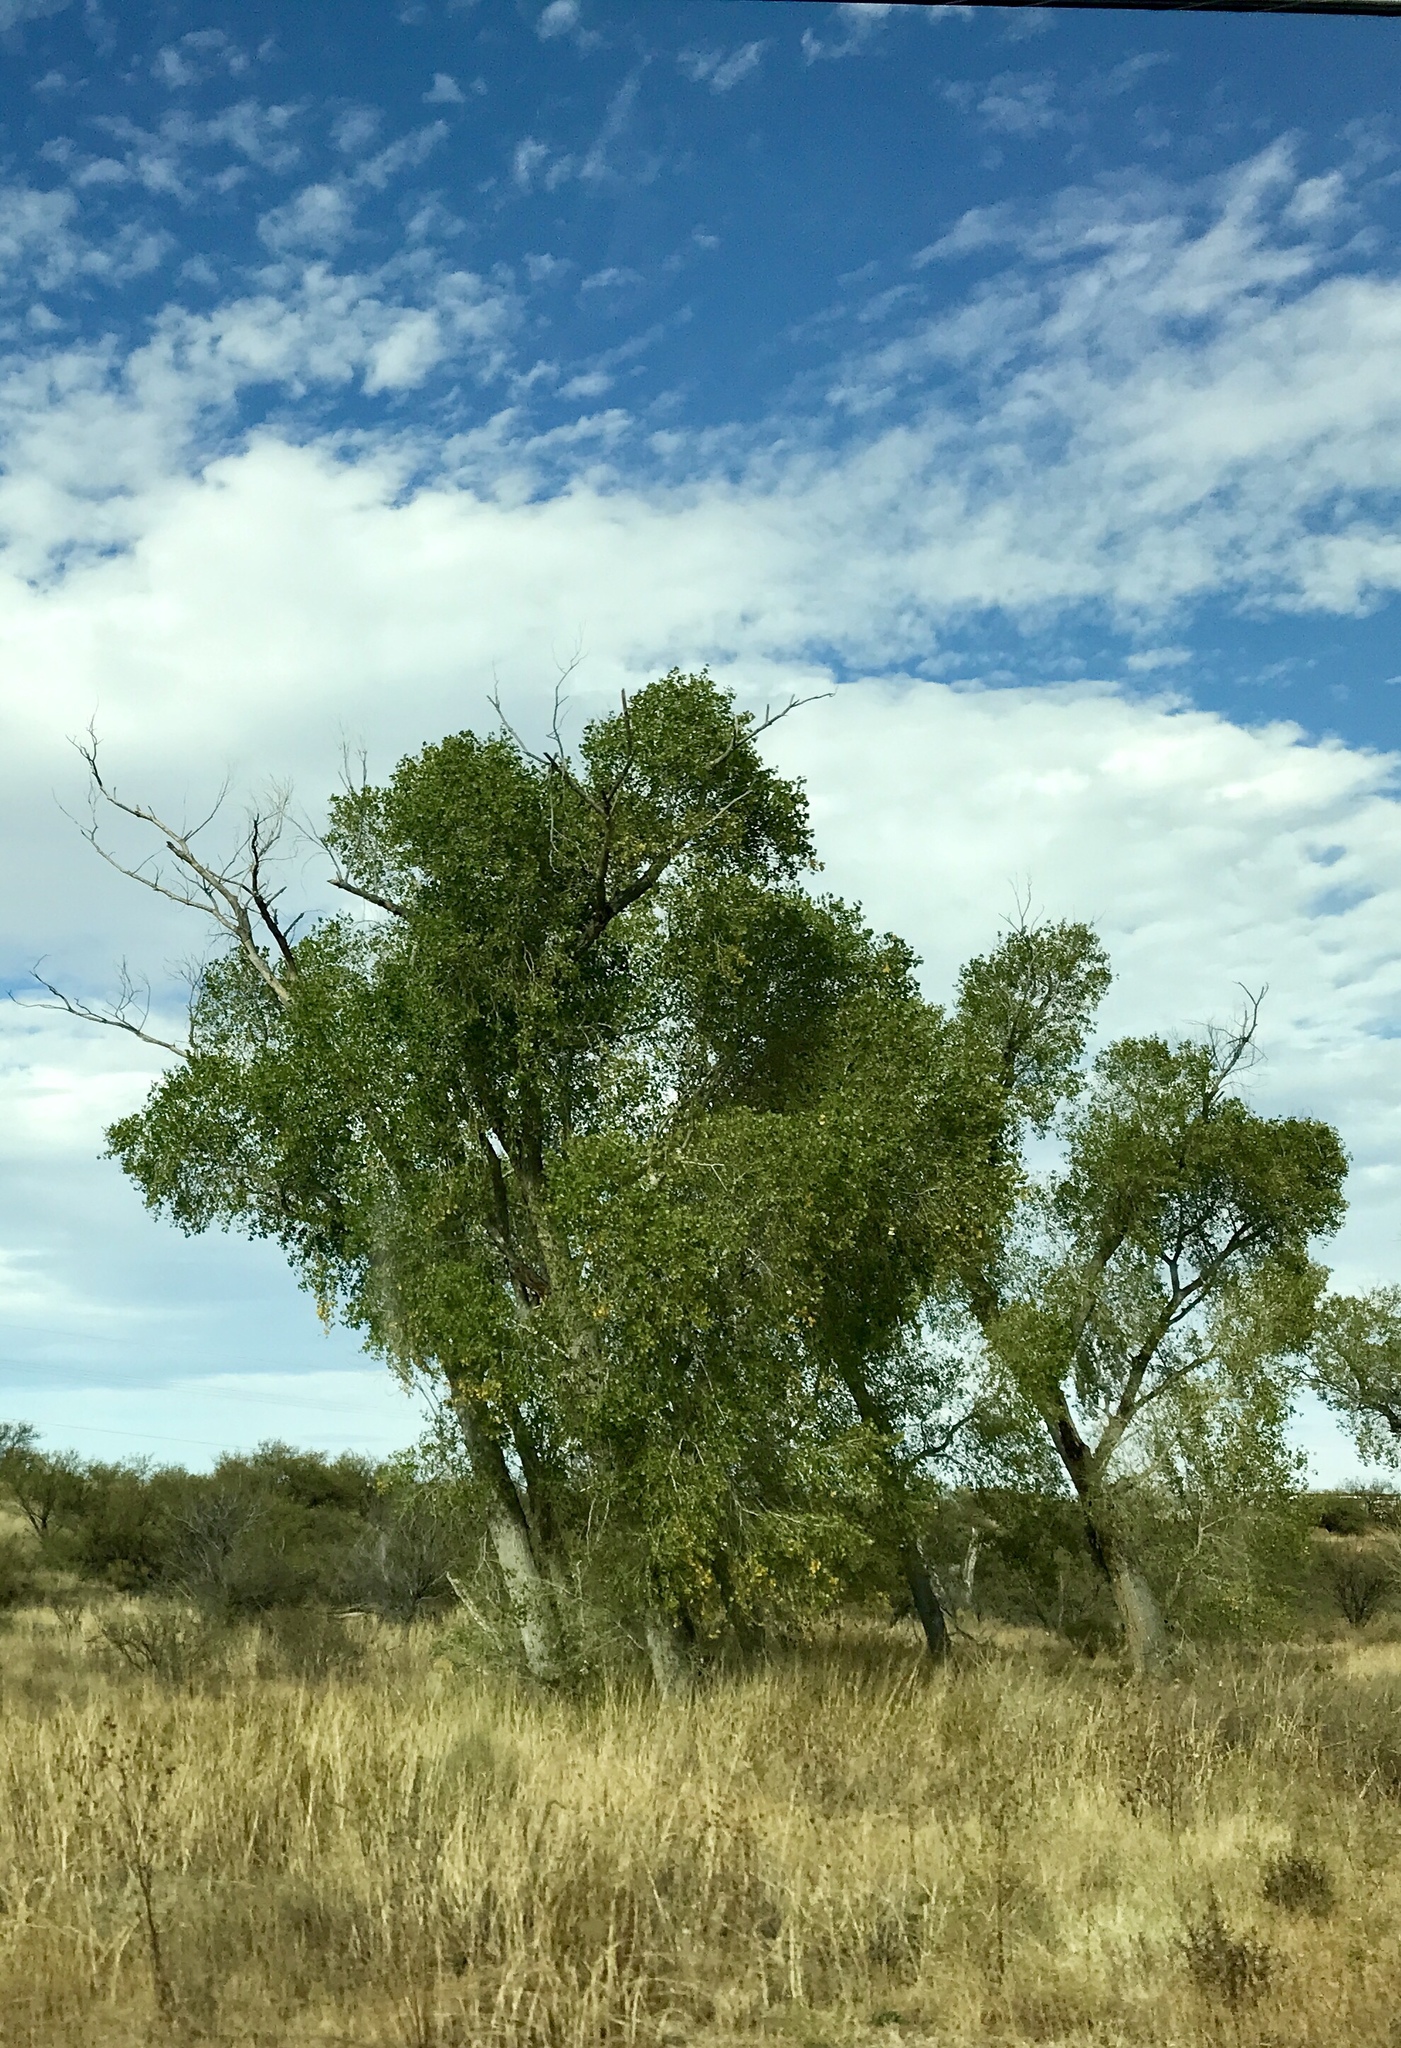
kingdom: Plantae
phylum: Tracheophyta
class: Magnoliopsida
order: Malpighiales
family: Salicaceae
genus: Populus
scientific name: Populus fremontii
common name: Fremont's cottonwood
